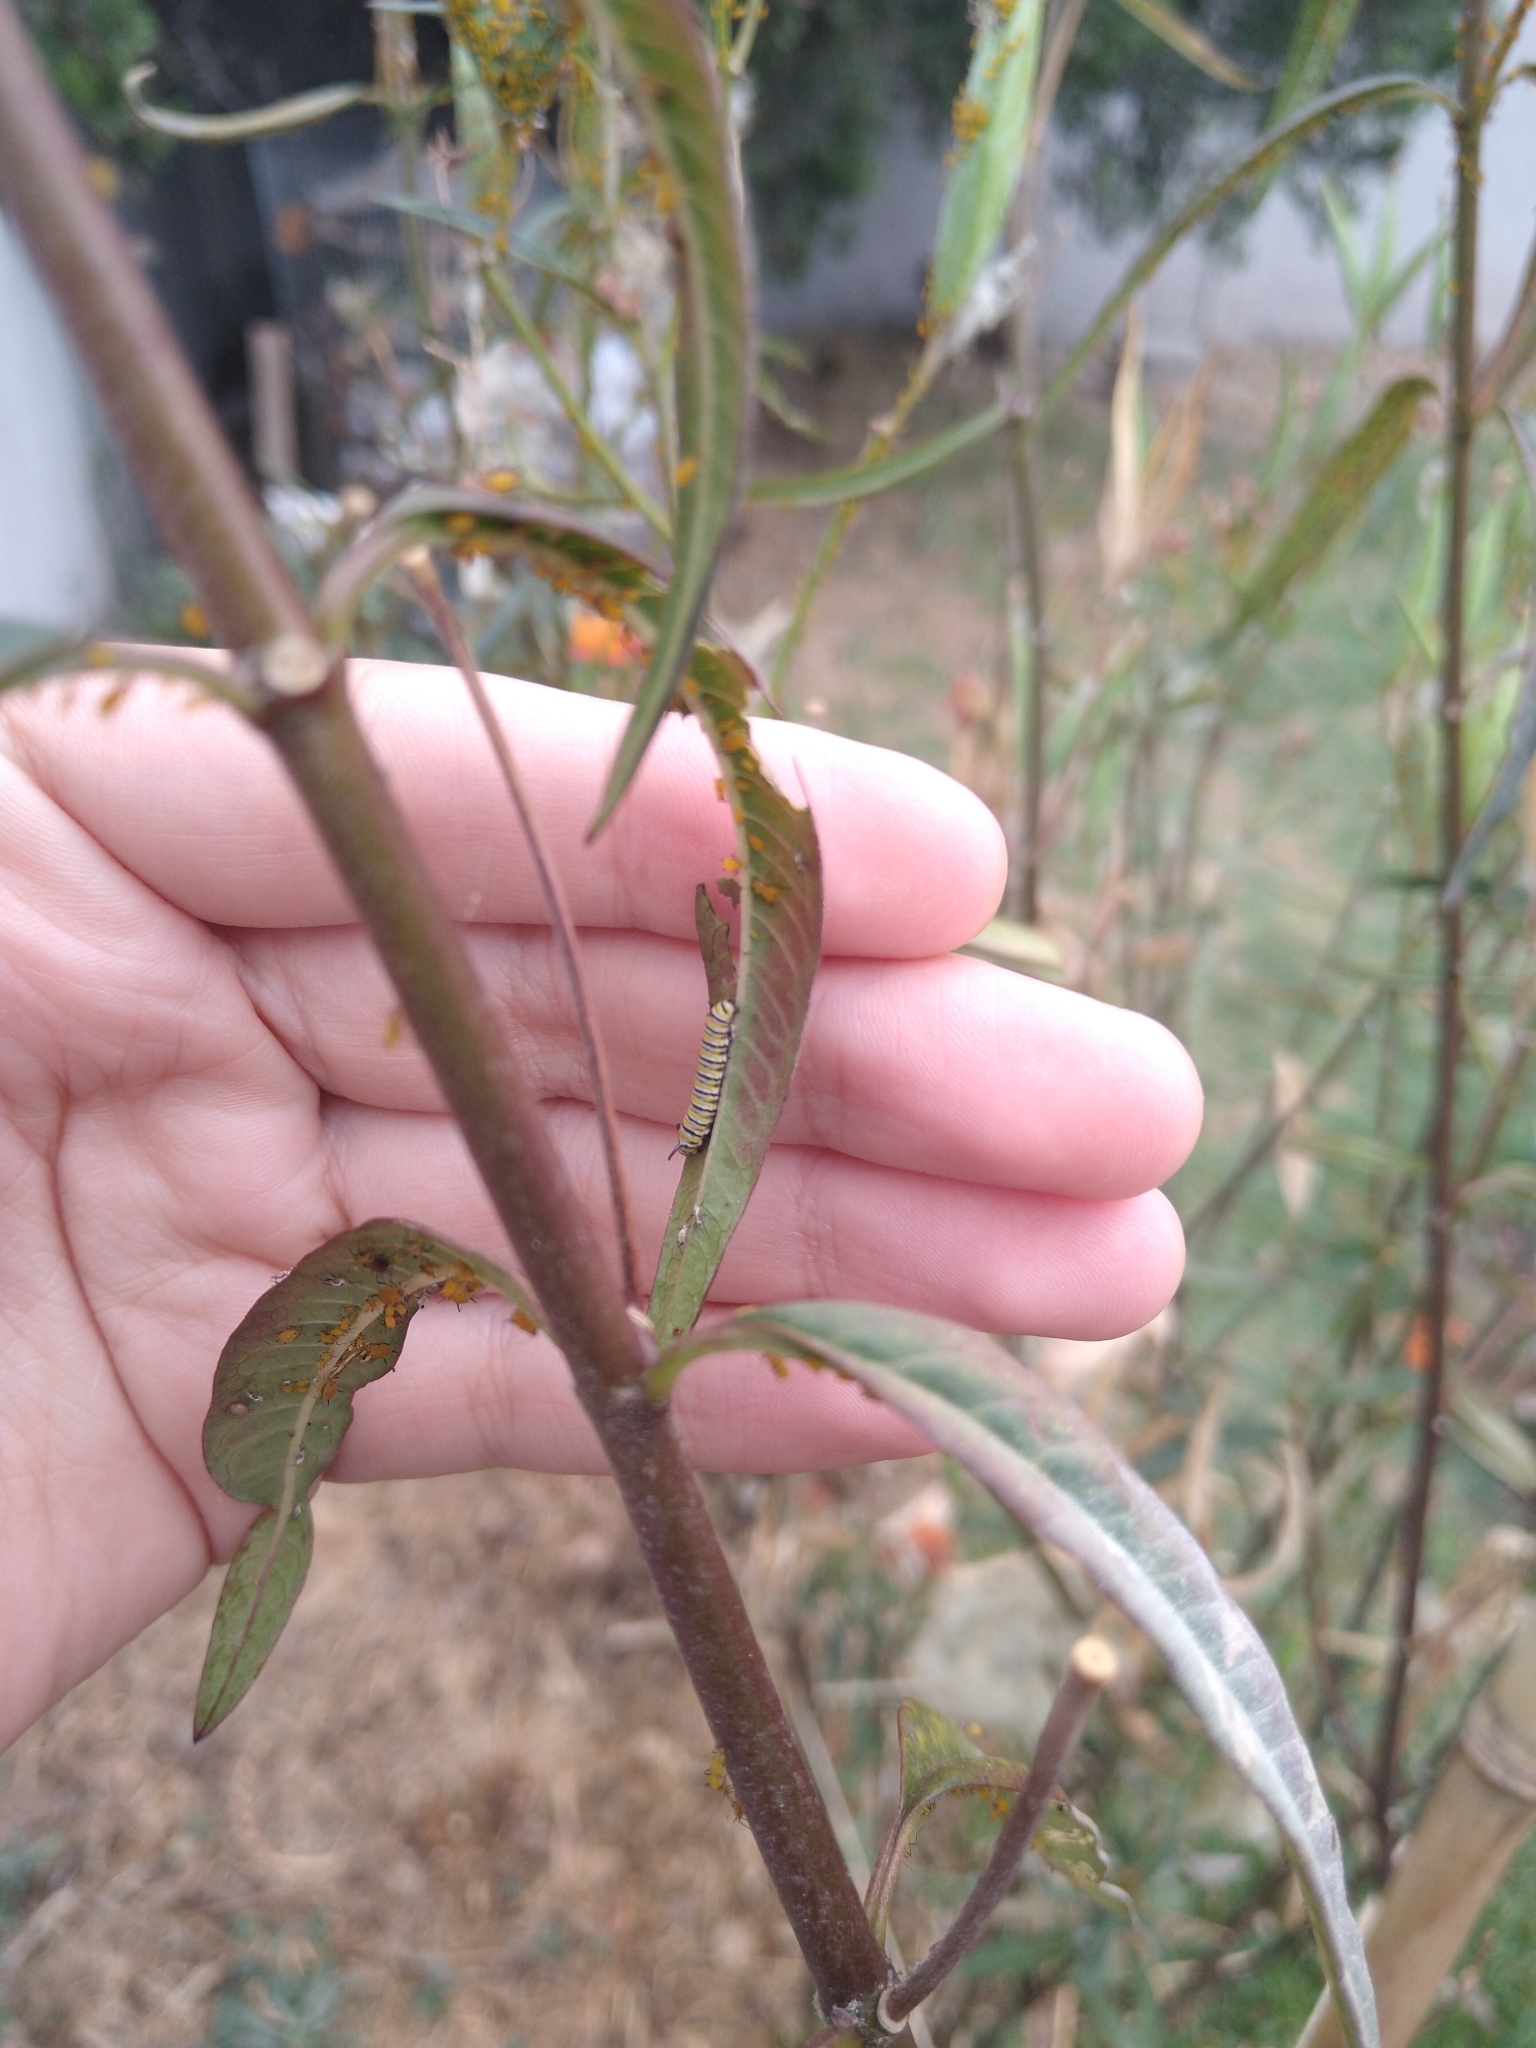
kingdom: Animalia
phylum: Arthropoda
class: Insecta
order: Lepidoptera
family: Nymphalidae
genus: Danaus
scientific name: Danaus plexippus
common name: Monarch
